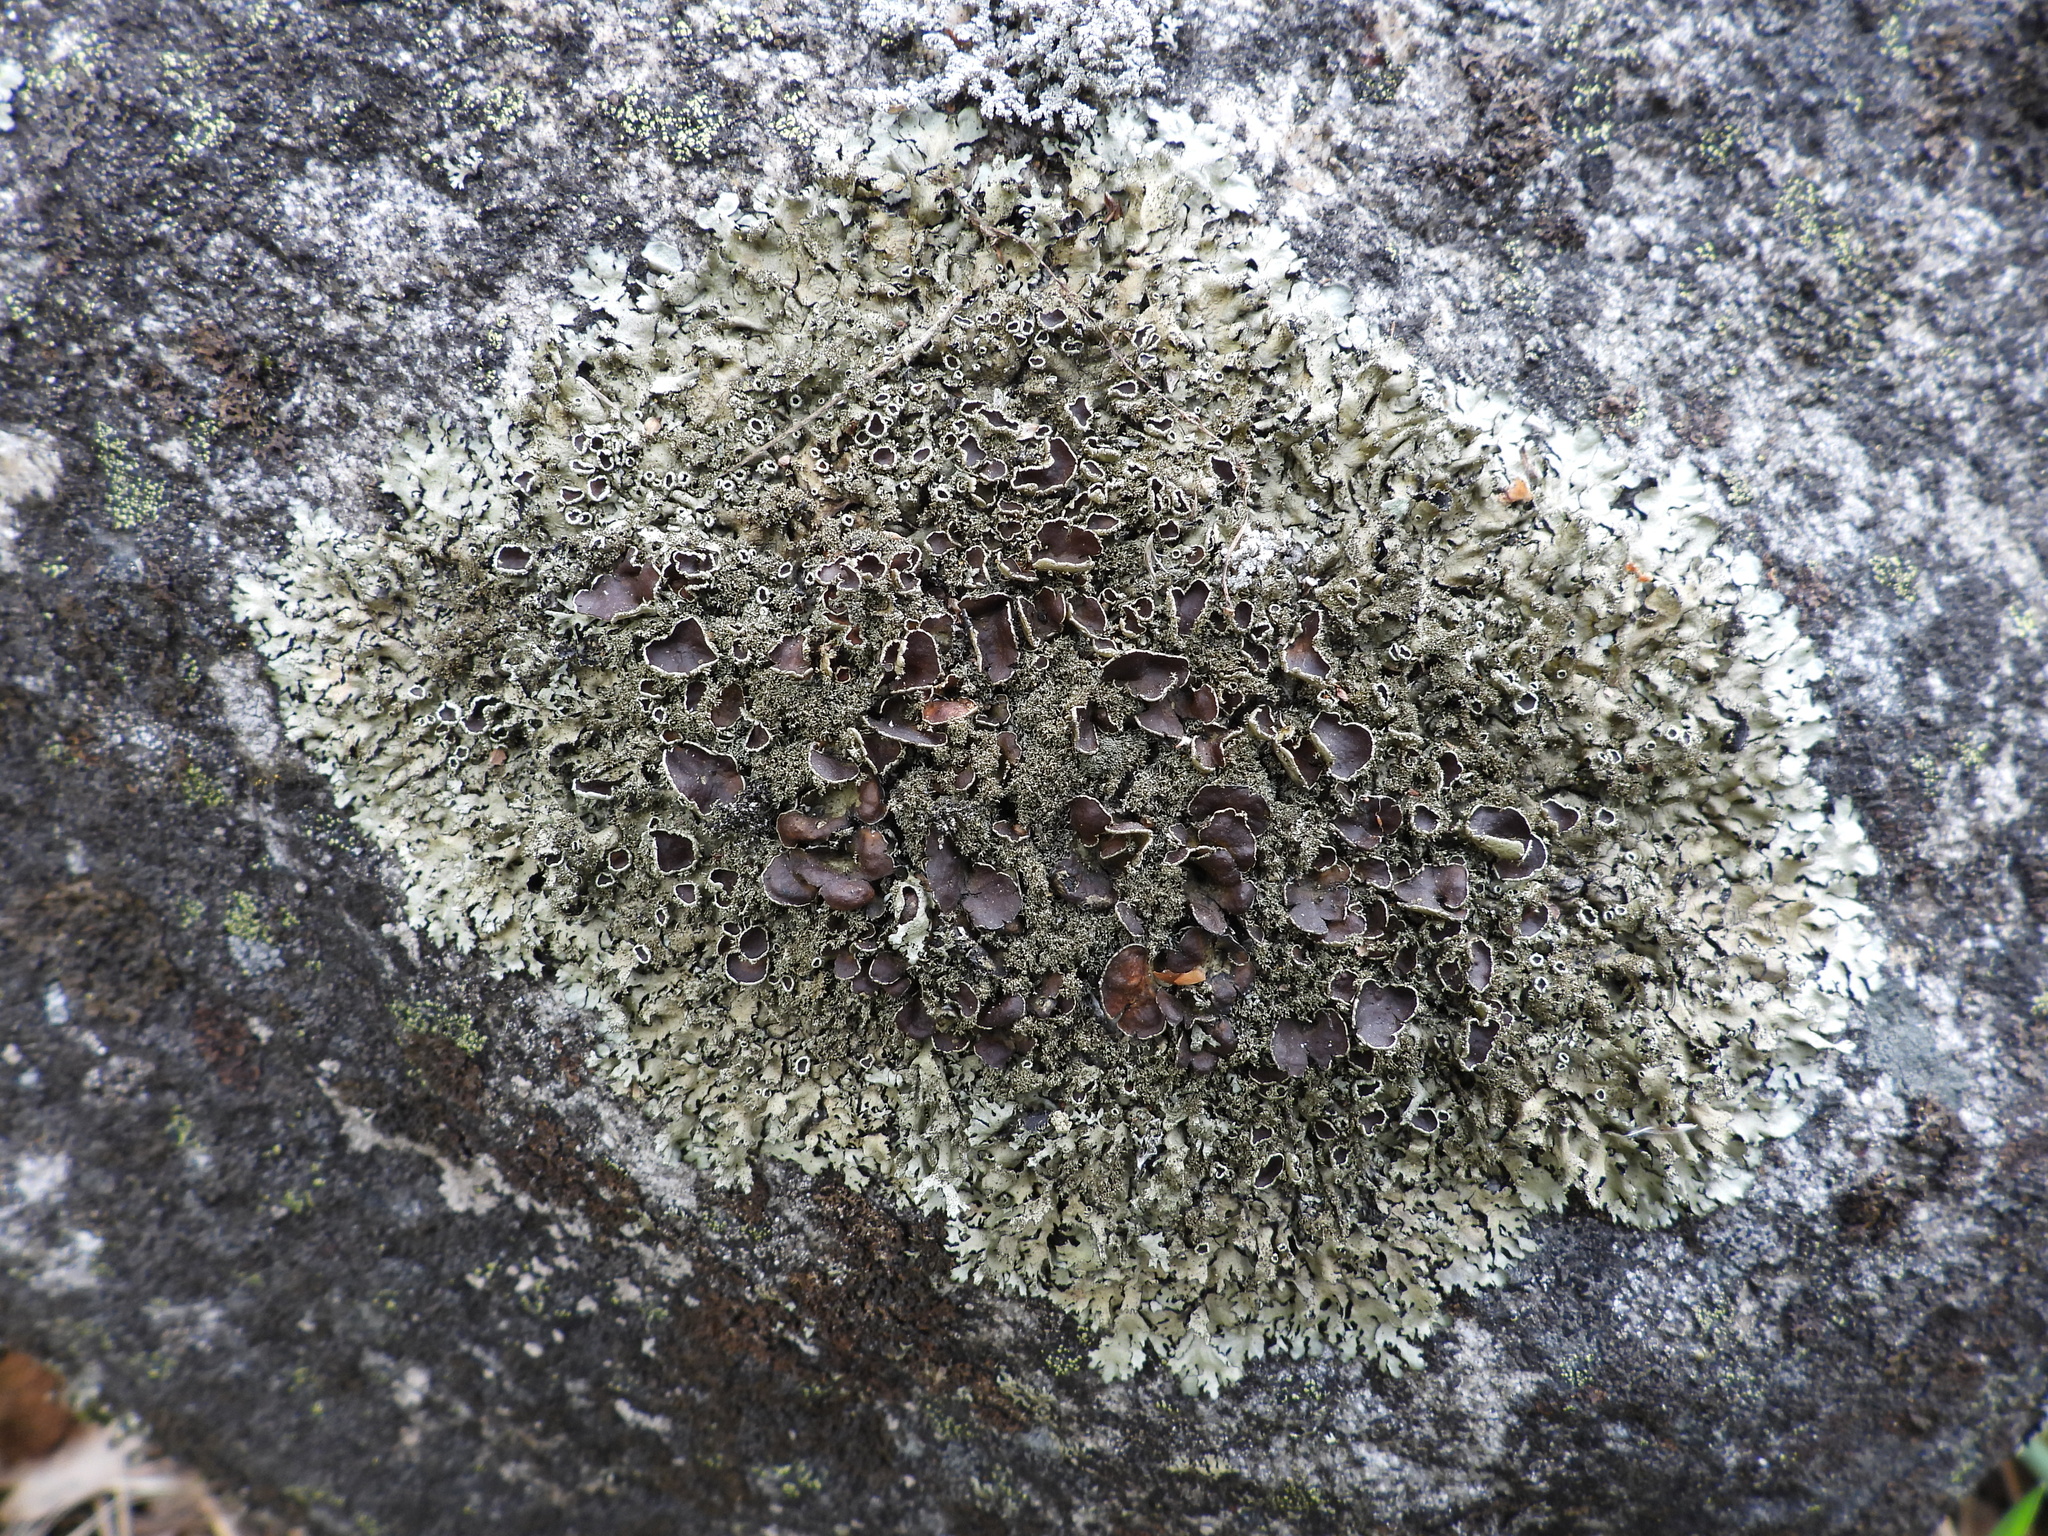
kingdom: Fungi
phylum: Ascomycota
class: Lecanoromycetes
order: Lecanorales
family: Parmeliaceae
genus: Xanthoparmelia
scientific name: Xanthoparmelia conspersa
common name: Peppered rock shield
